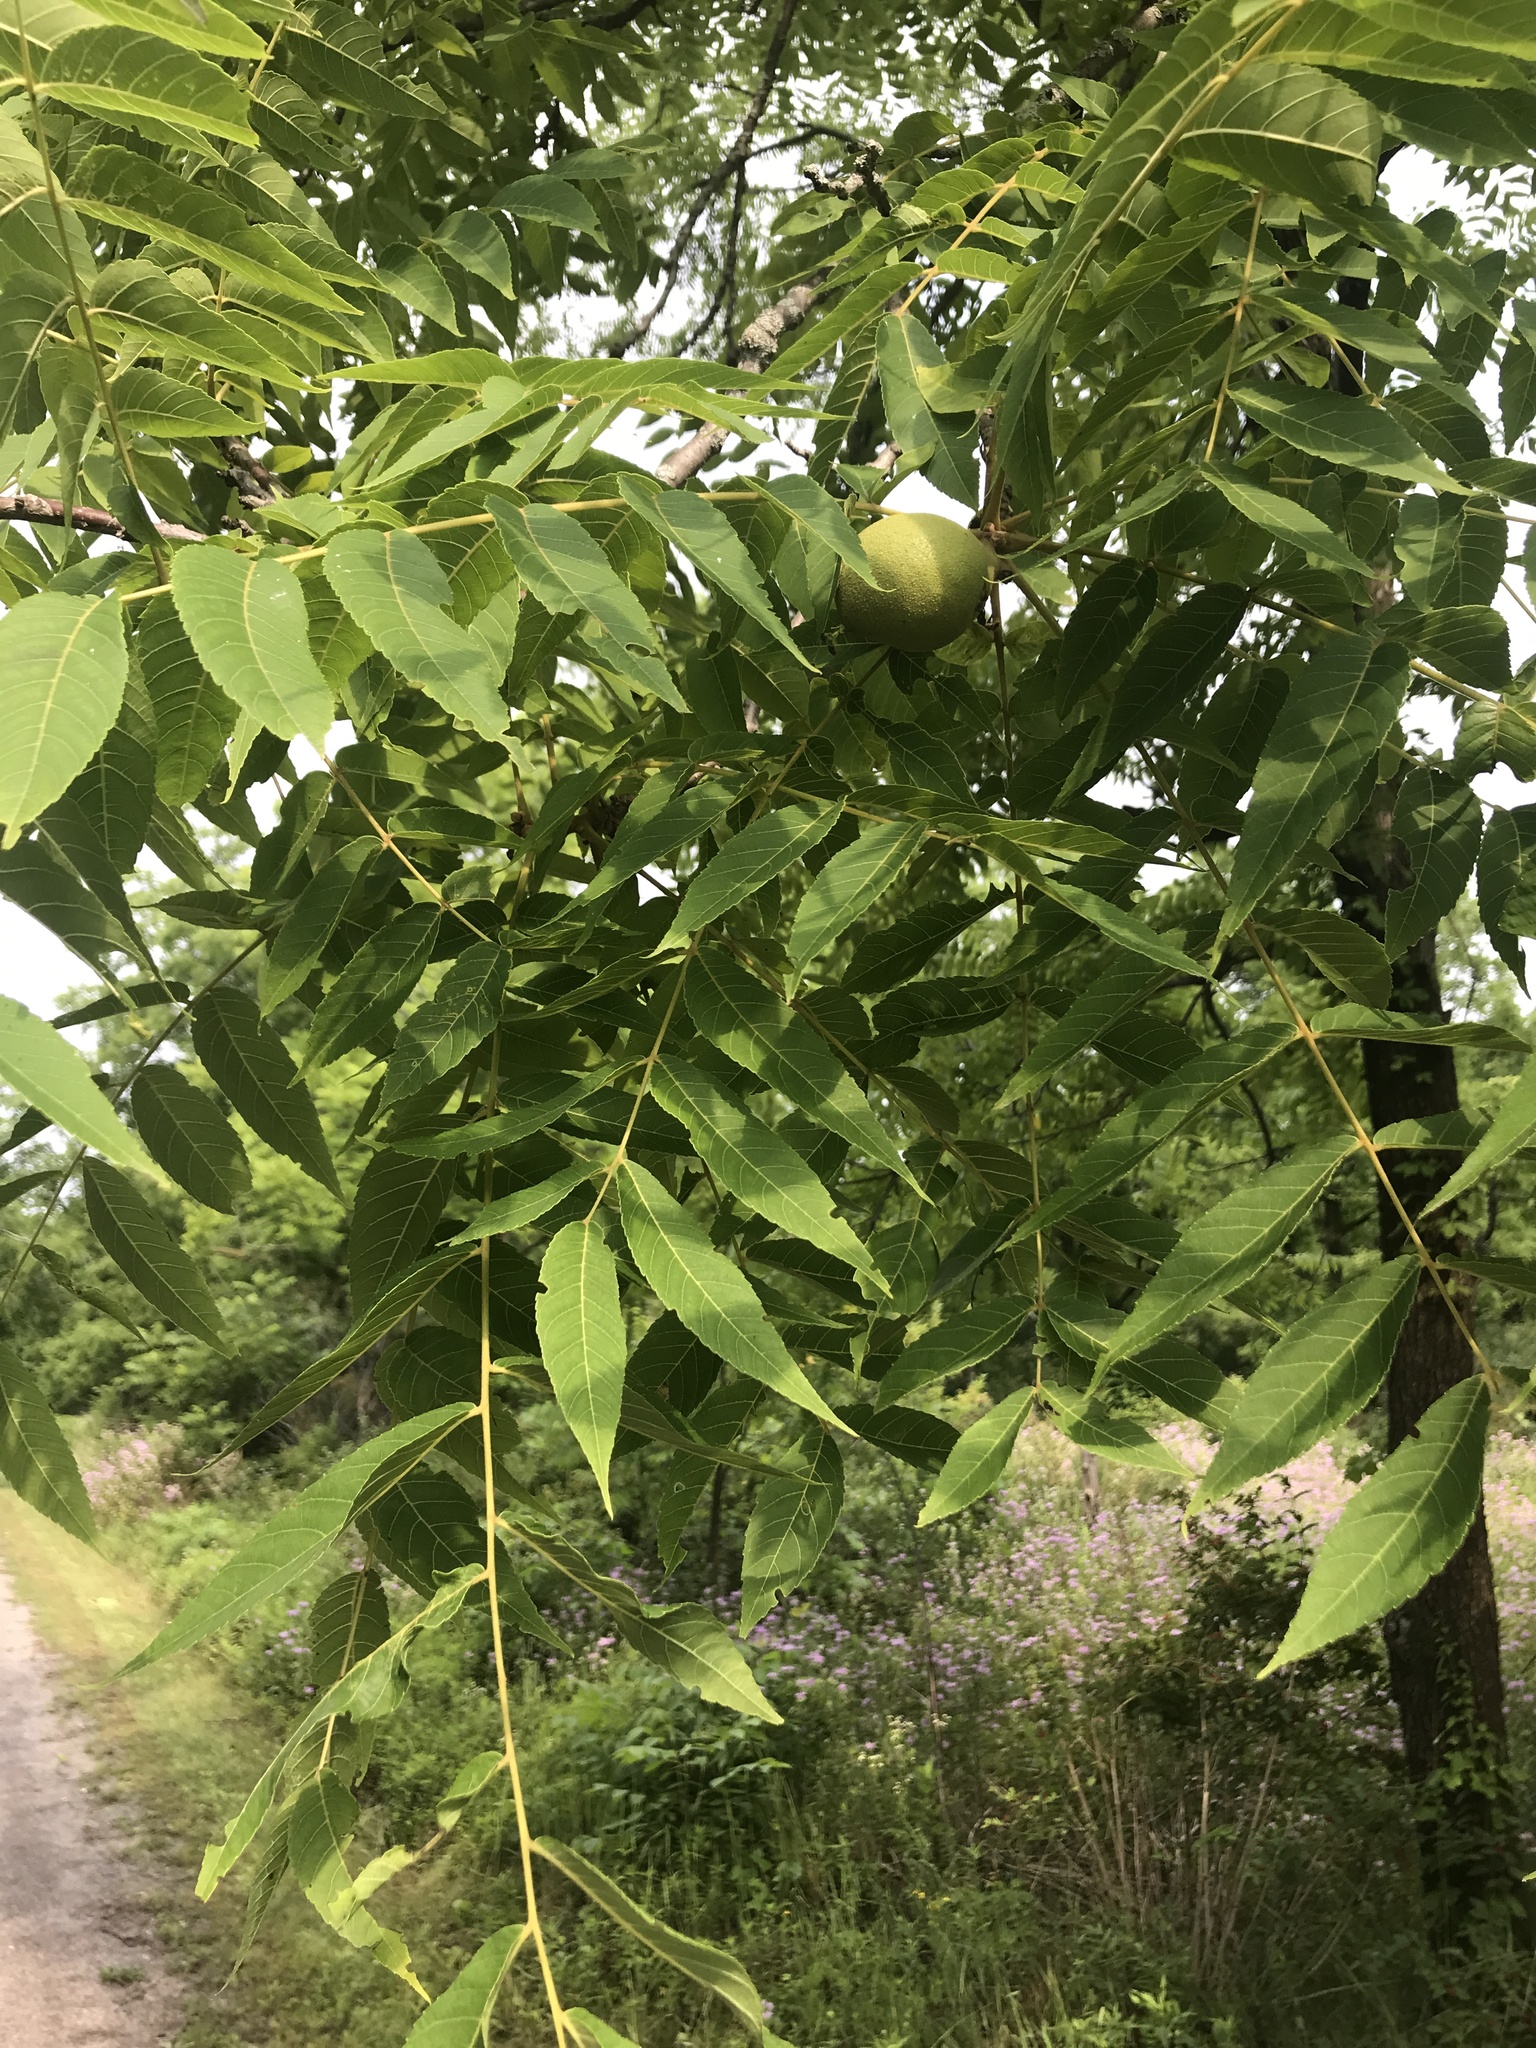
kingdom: Plantae
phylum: Tracheophyta
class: Magnoliopsida
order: Fagales
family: Juglandaceae
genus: Juglans
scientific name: Juglans nigra
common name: Black walnut
